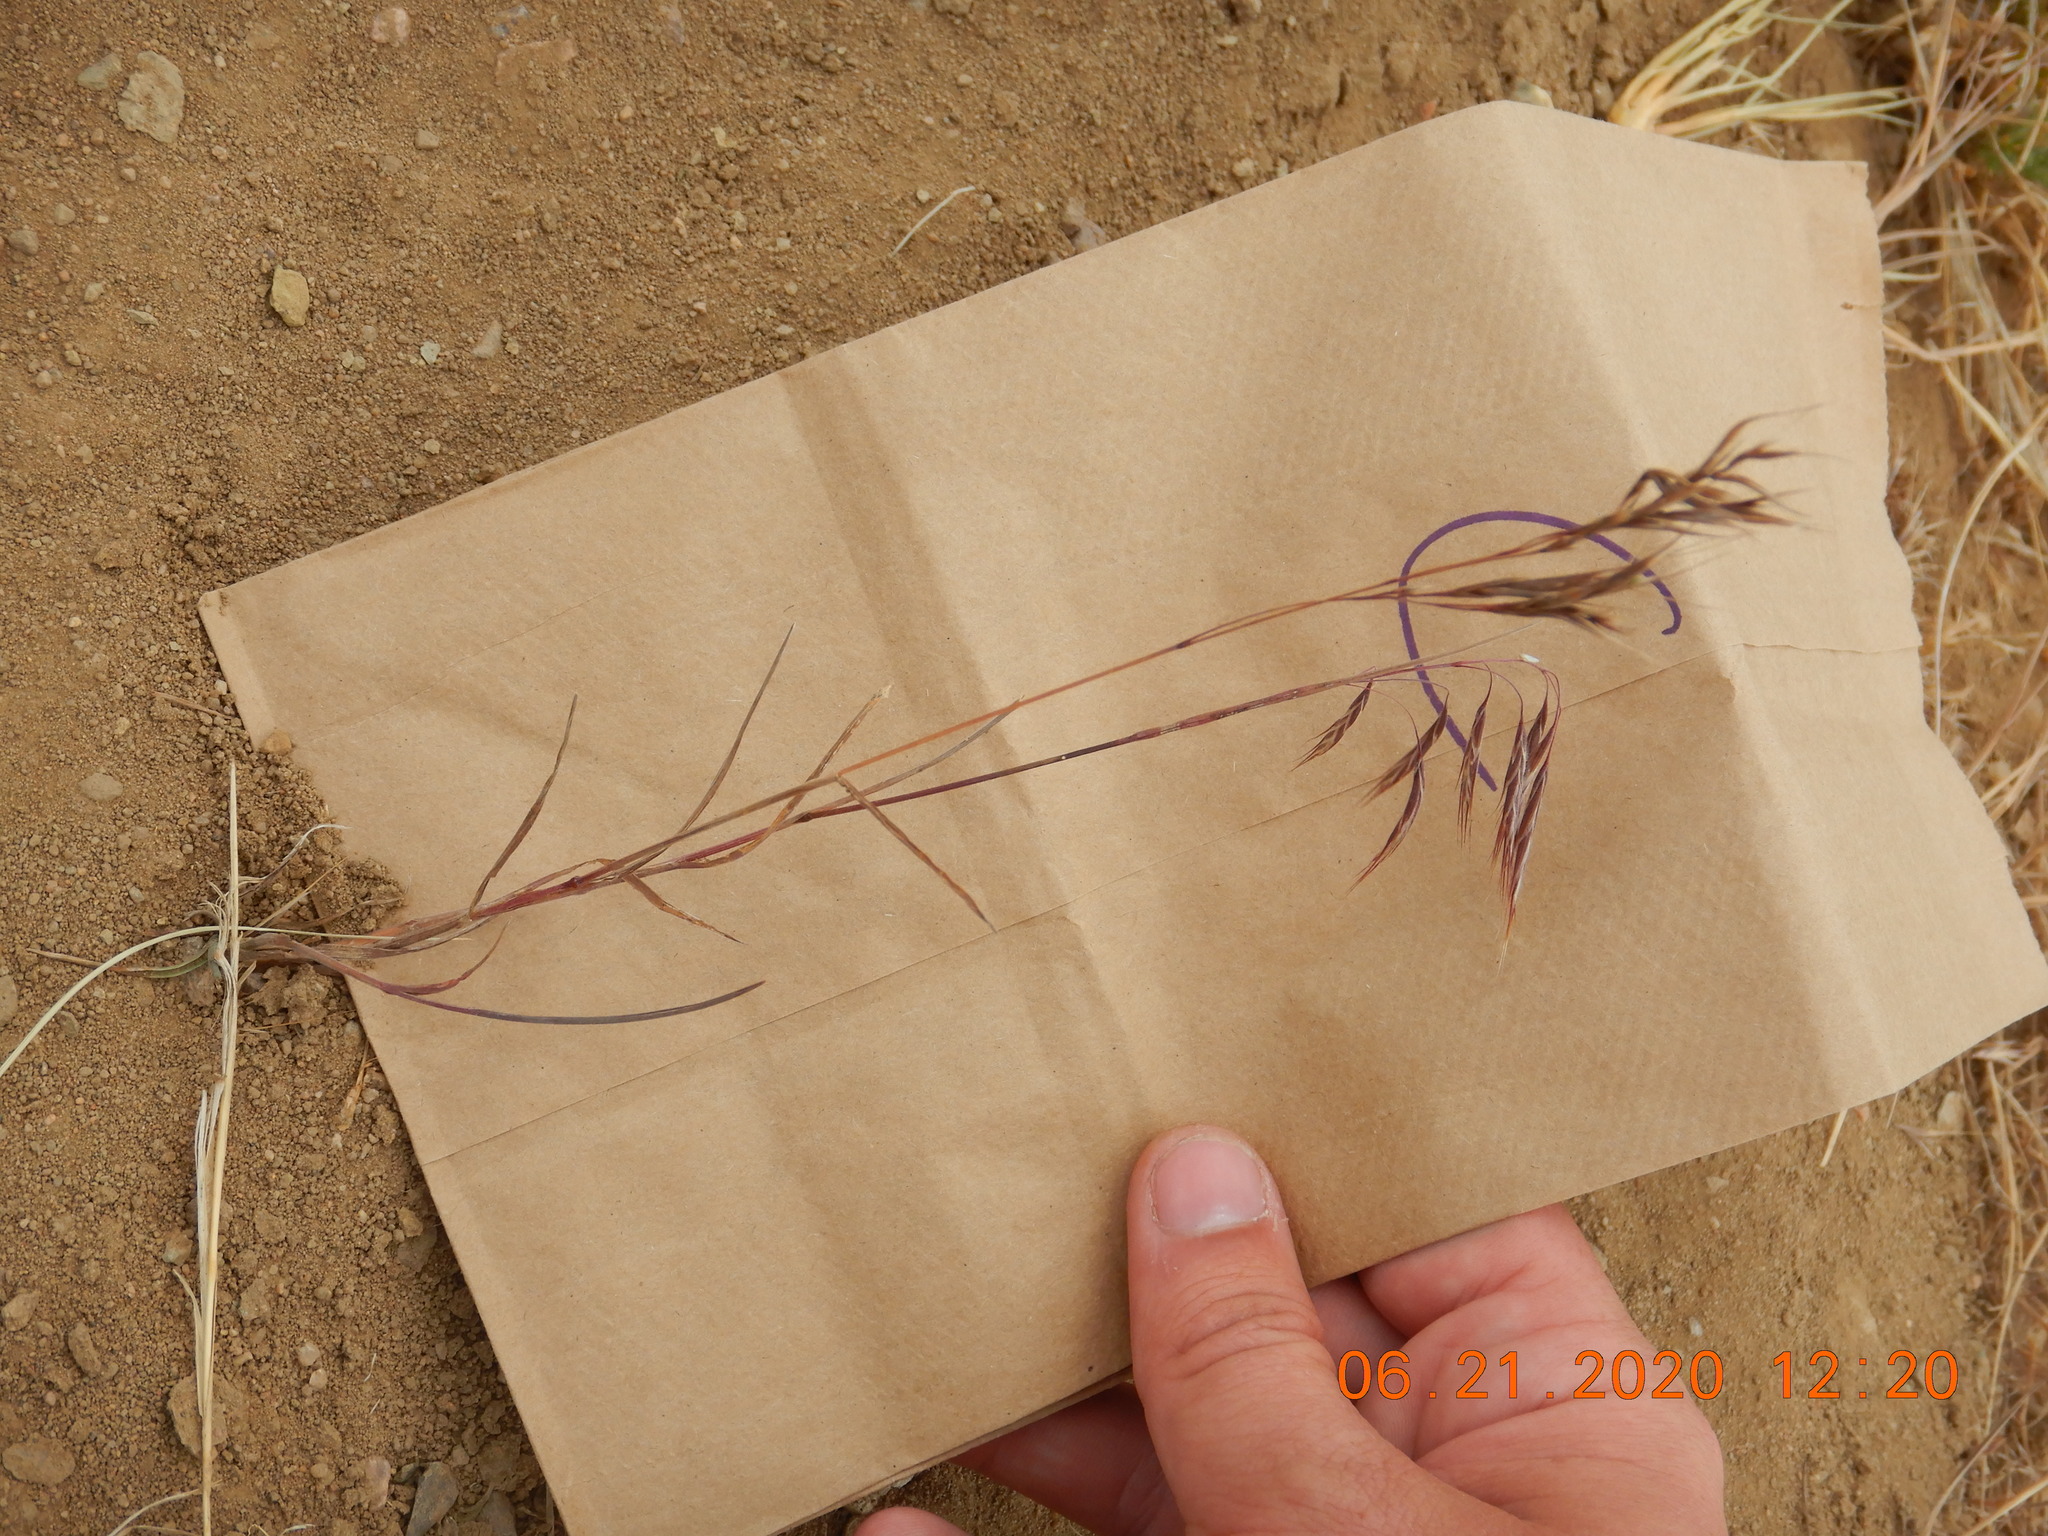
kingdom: Plantae
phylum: Tracheophyta
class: Liliopsida
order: Poales
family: Poaceae
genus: Bromus
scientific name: Bromus tectorum
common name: Cheatgrass
